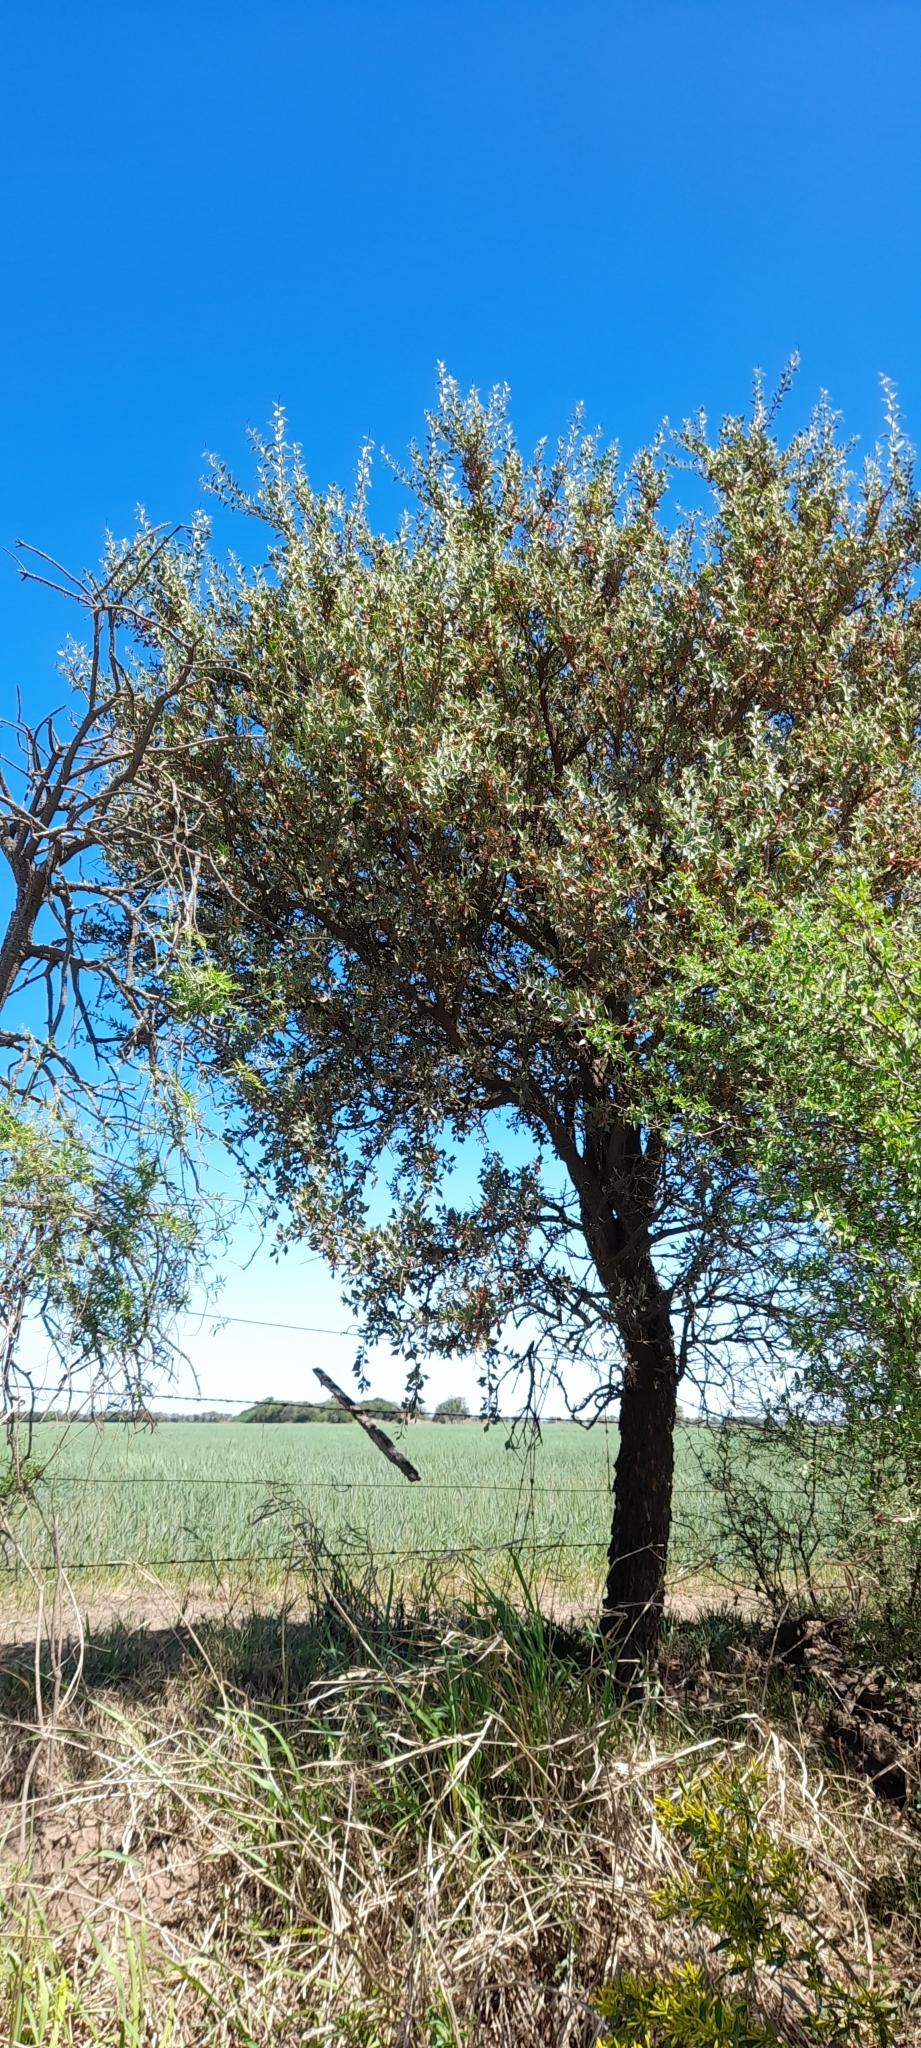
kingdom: Plantae
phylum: Tracheophyta
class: Magnoliopsida
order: Santalales
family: Cervantesiaceae
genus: Jodina
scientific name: Jodina rhombifolia
